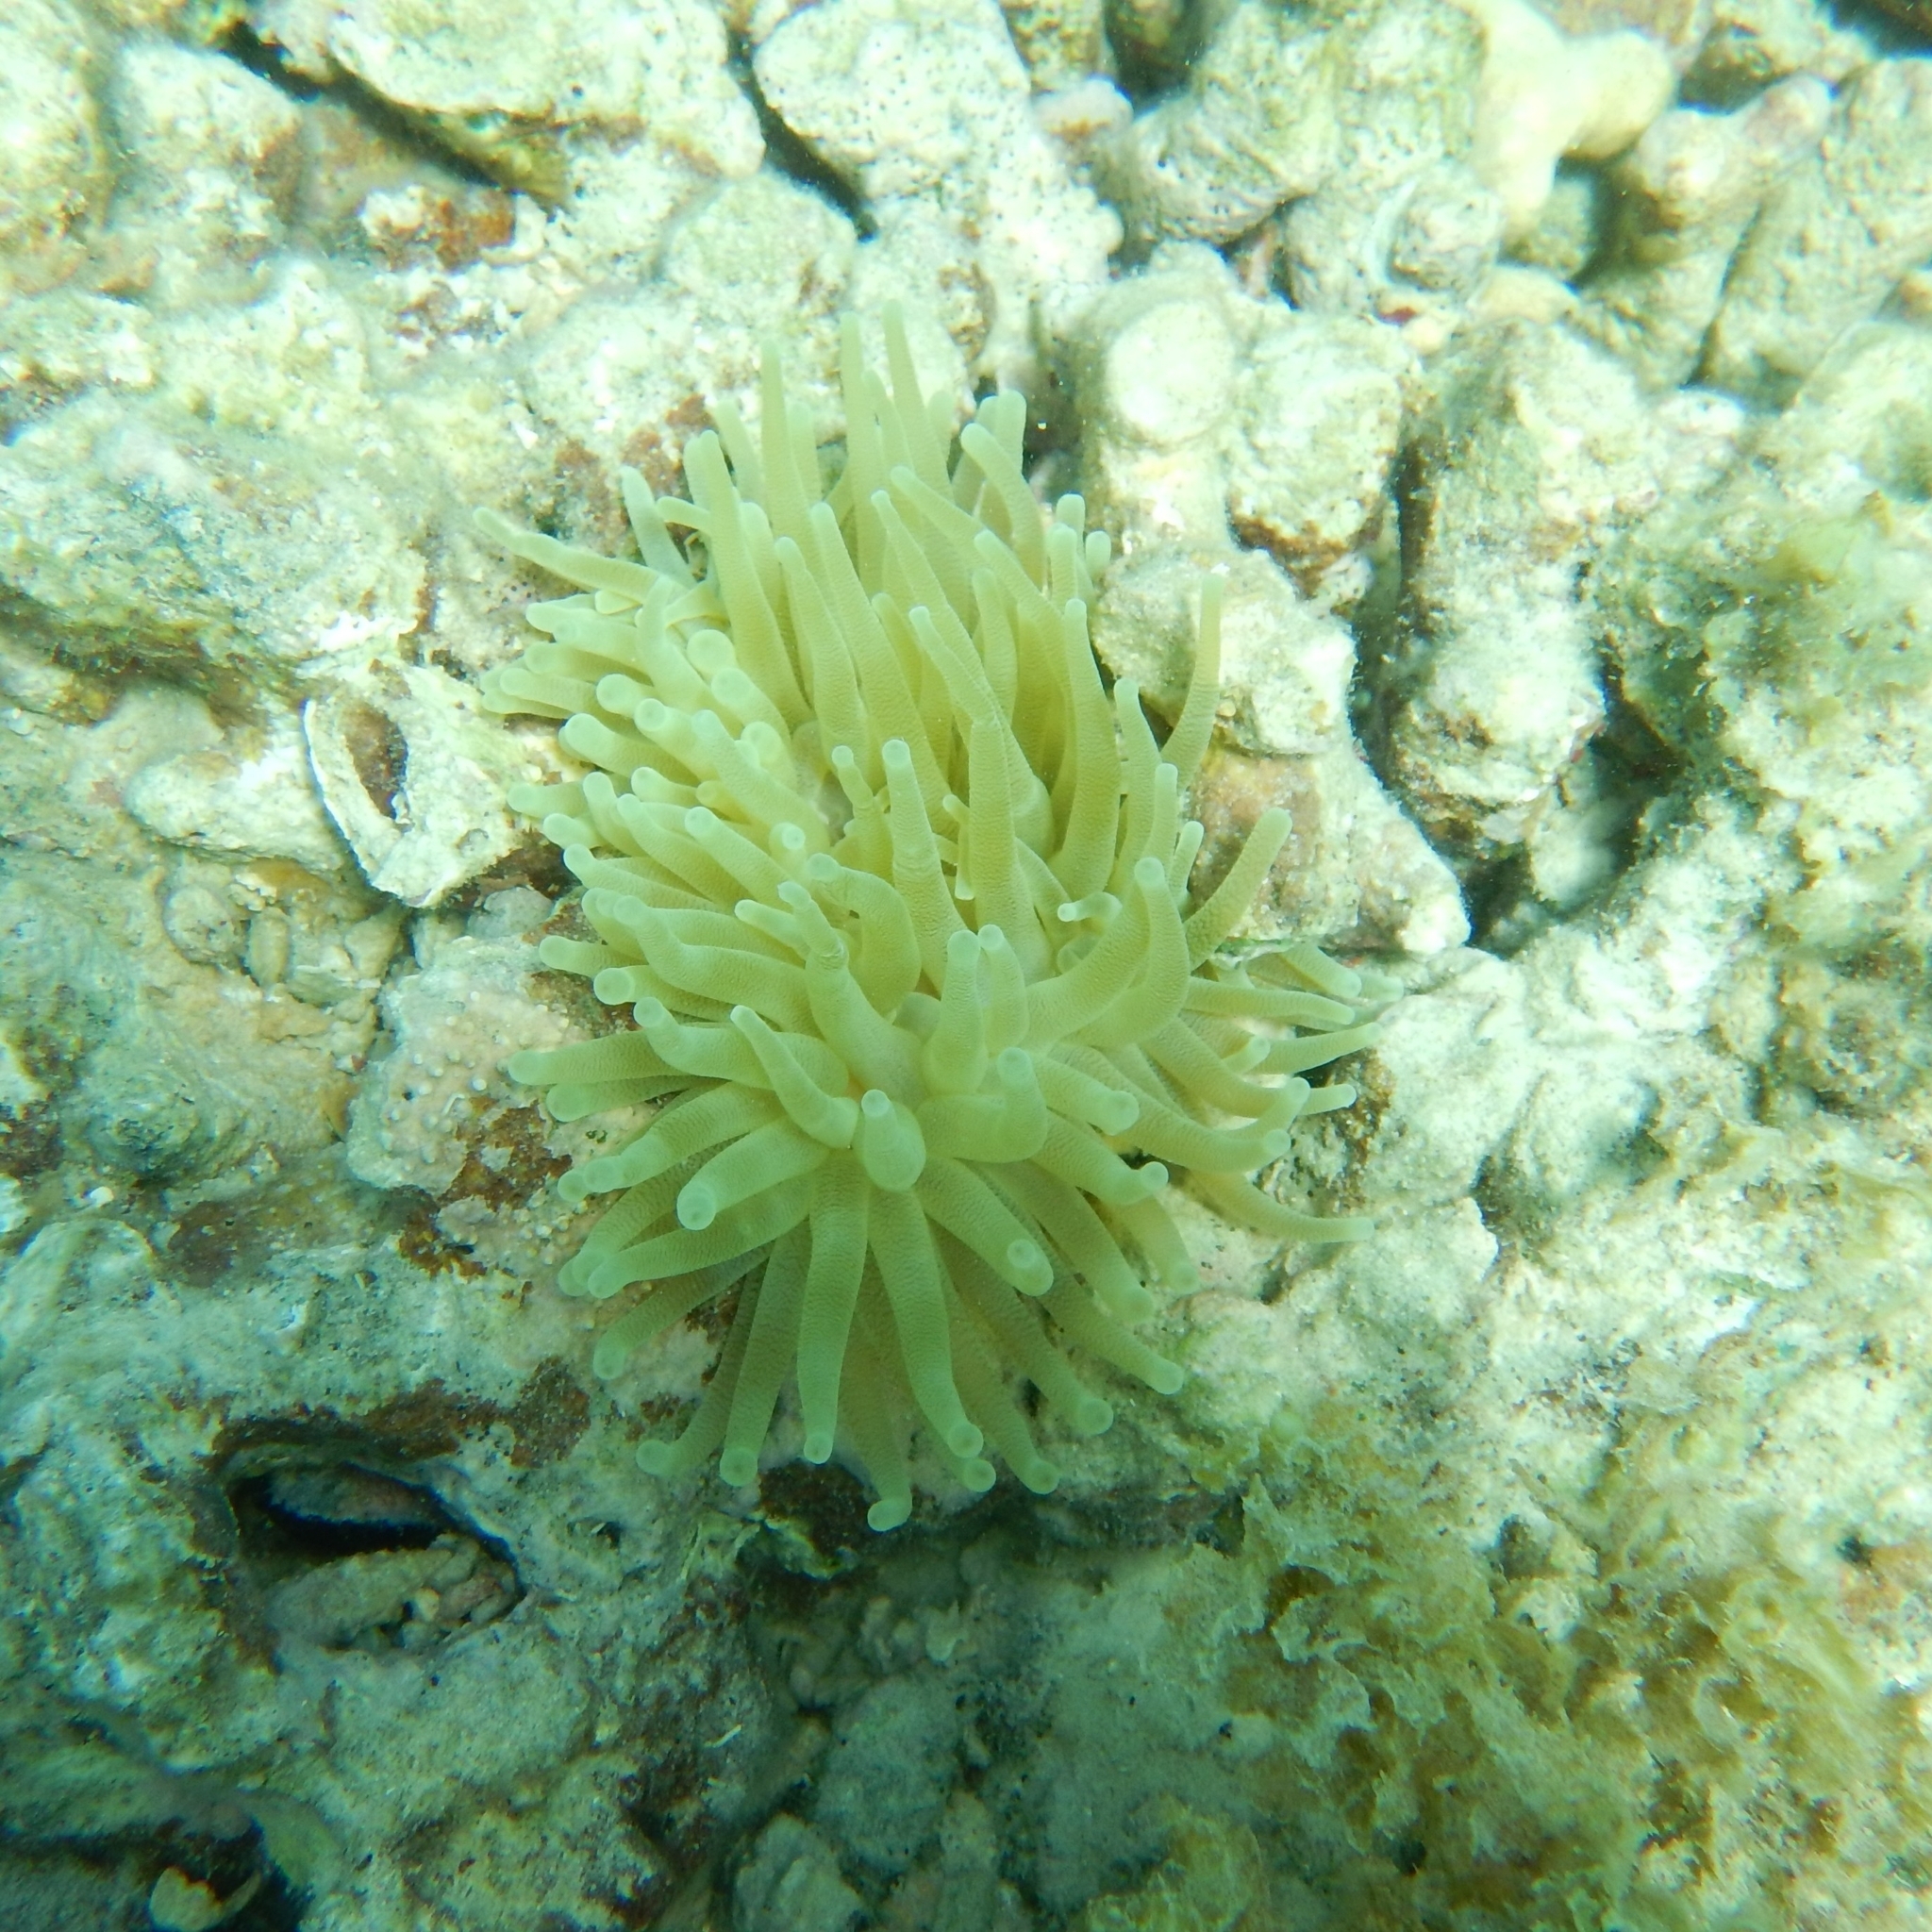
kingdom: Animalia
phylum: Cnidaria
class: Anthozoa
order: Actiniaria
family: Actiniidae
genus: Condylactis
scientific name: Condylactis gigantea
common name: Giant caribbean anemone
